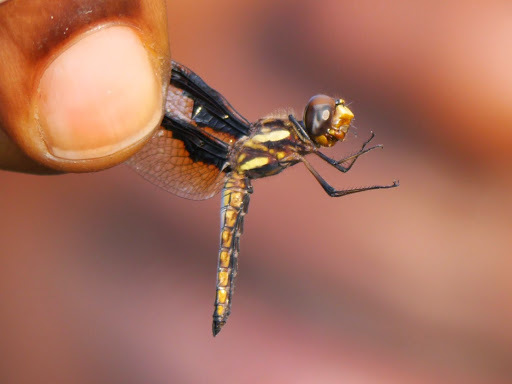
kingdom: Animalia
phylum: Arthropoda
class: Insecta
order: Odonata
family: Libellulidae
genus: Palpopleura
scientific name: Palpopleura albifrons
